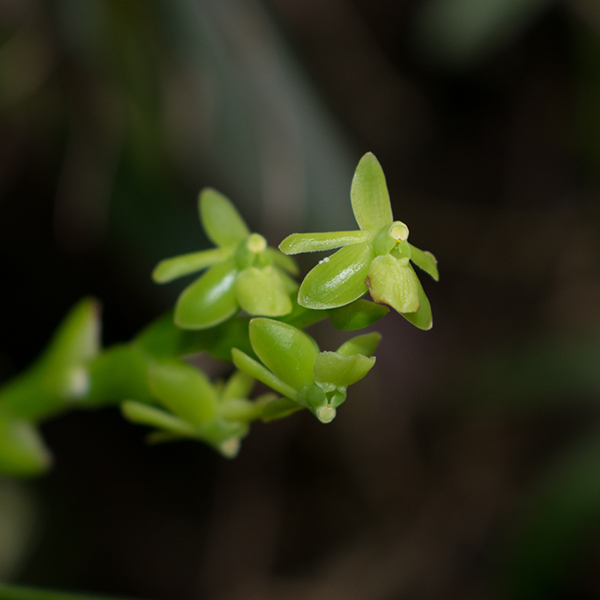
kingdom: Plantae
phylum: Tracheophyta
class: Liliopsida
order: Asparagales
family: Orchidaceae
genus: Epidendrum
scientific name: Epidendrum cardiophorum
